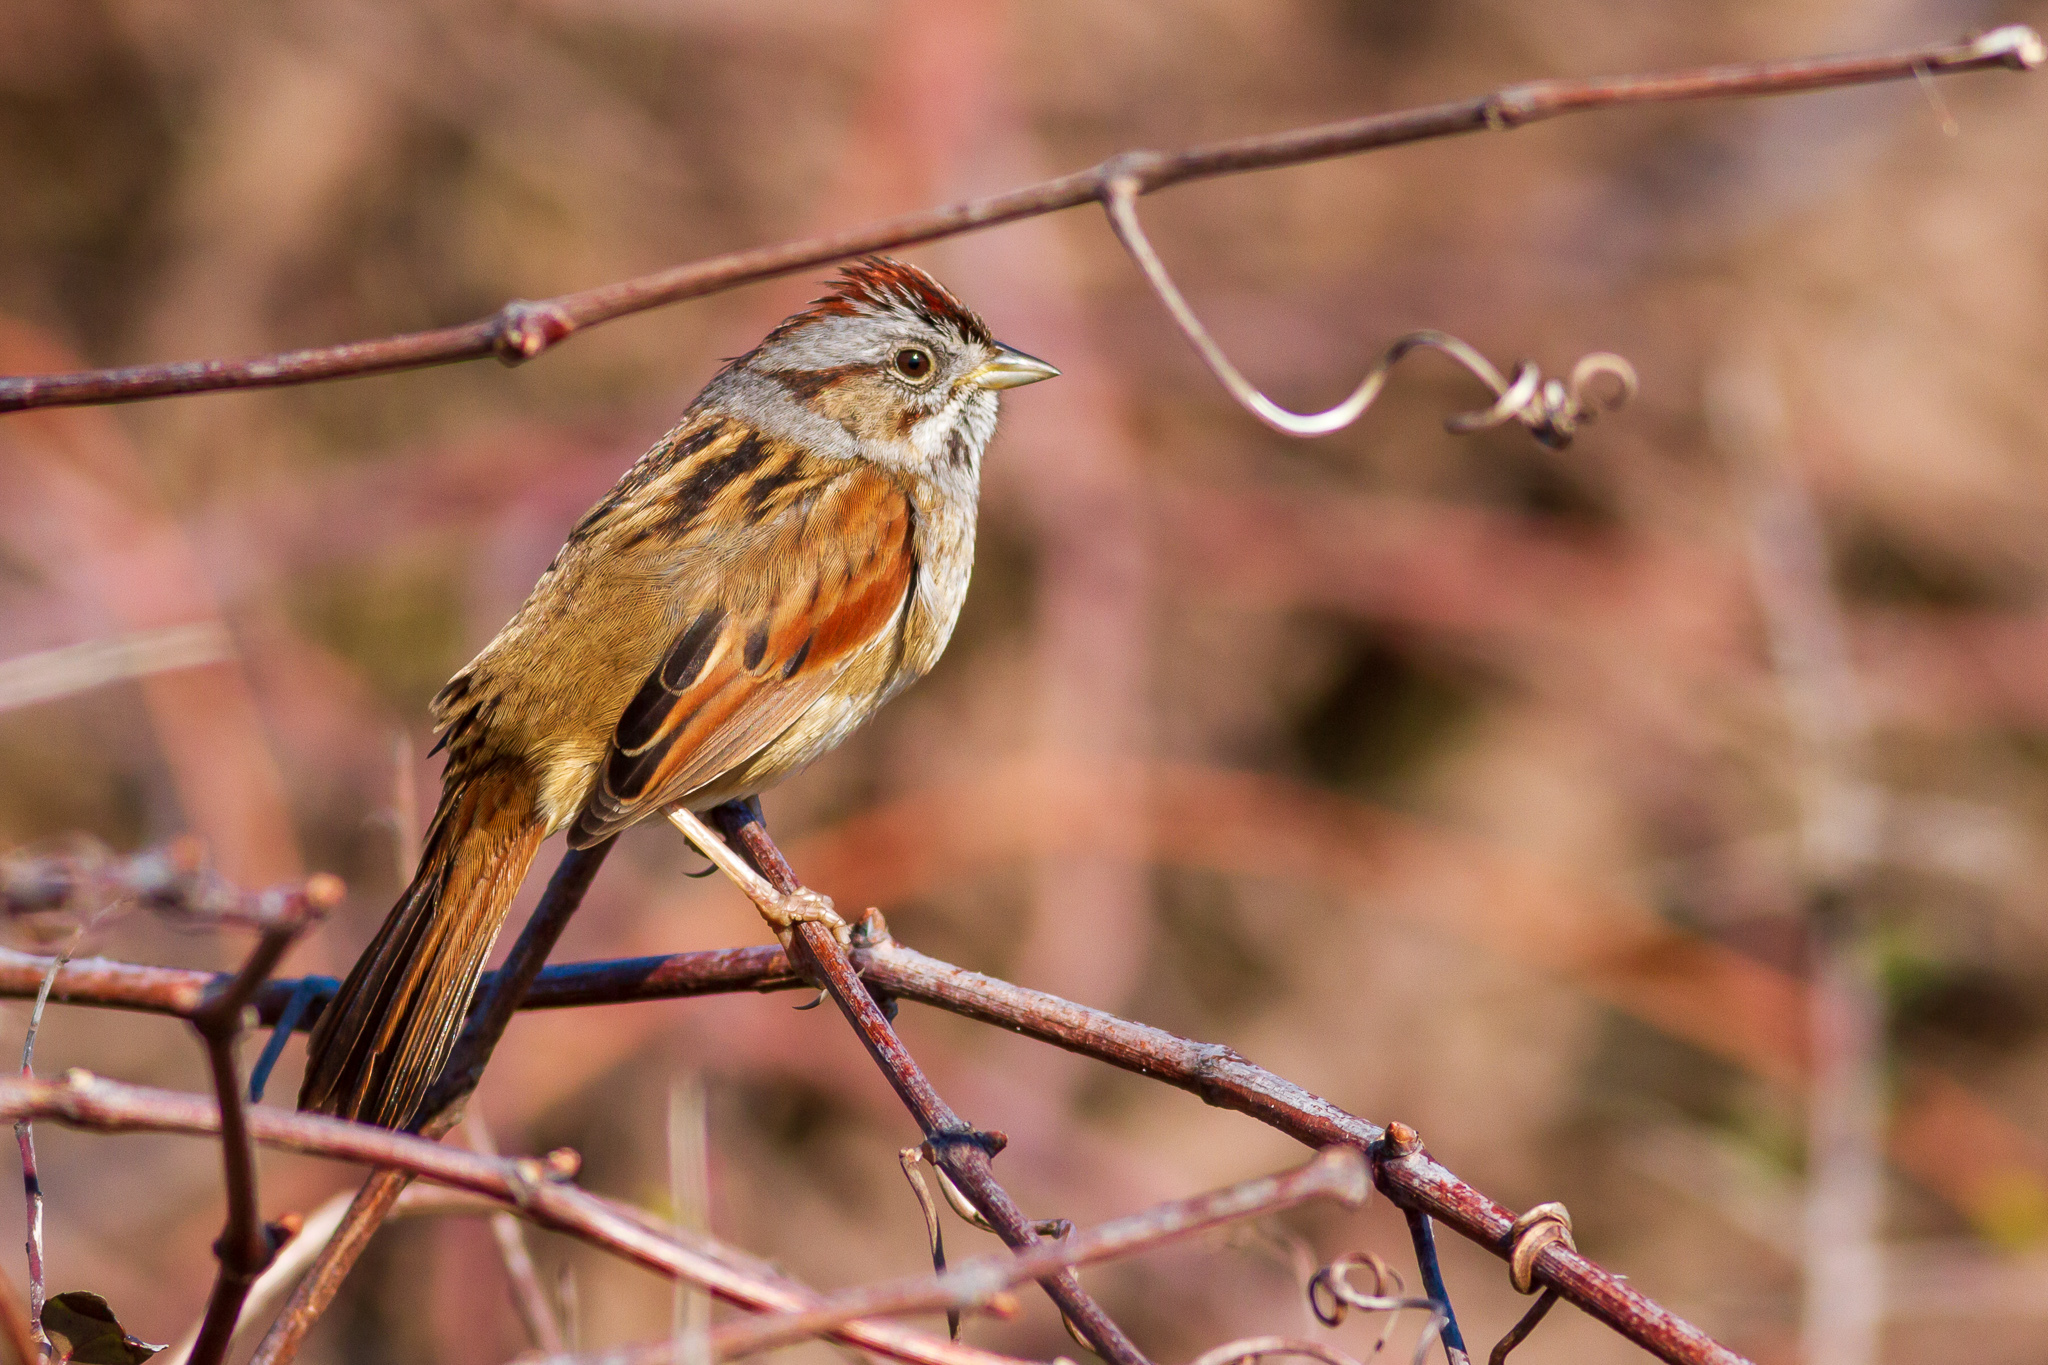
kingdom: Animalia
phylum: Chordata
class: Aves
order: Passeriformes
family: Passerellidae
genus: Melospiza
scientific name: Melospiza georgiana
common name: Swamp sparrow
